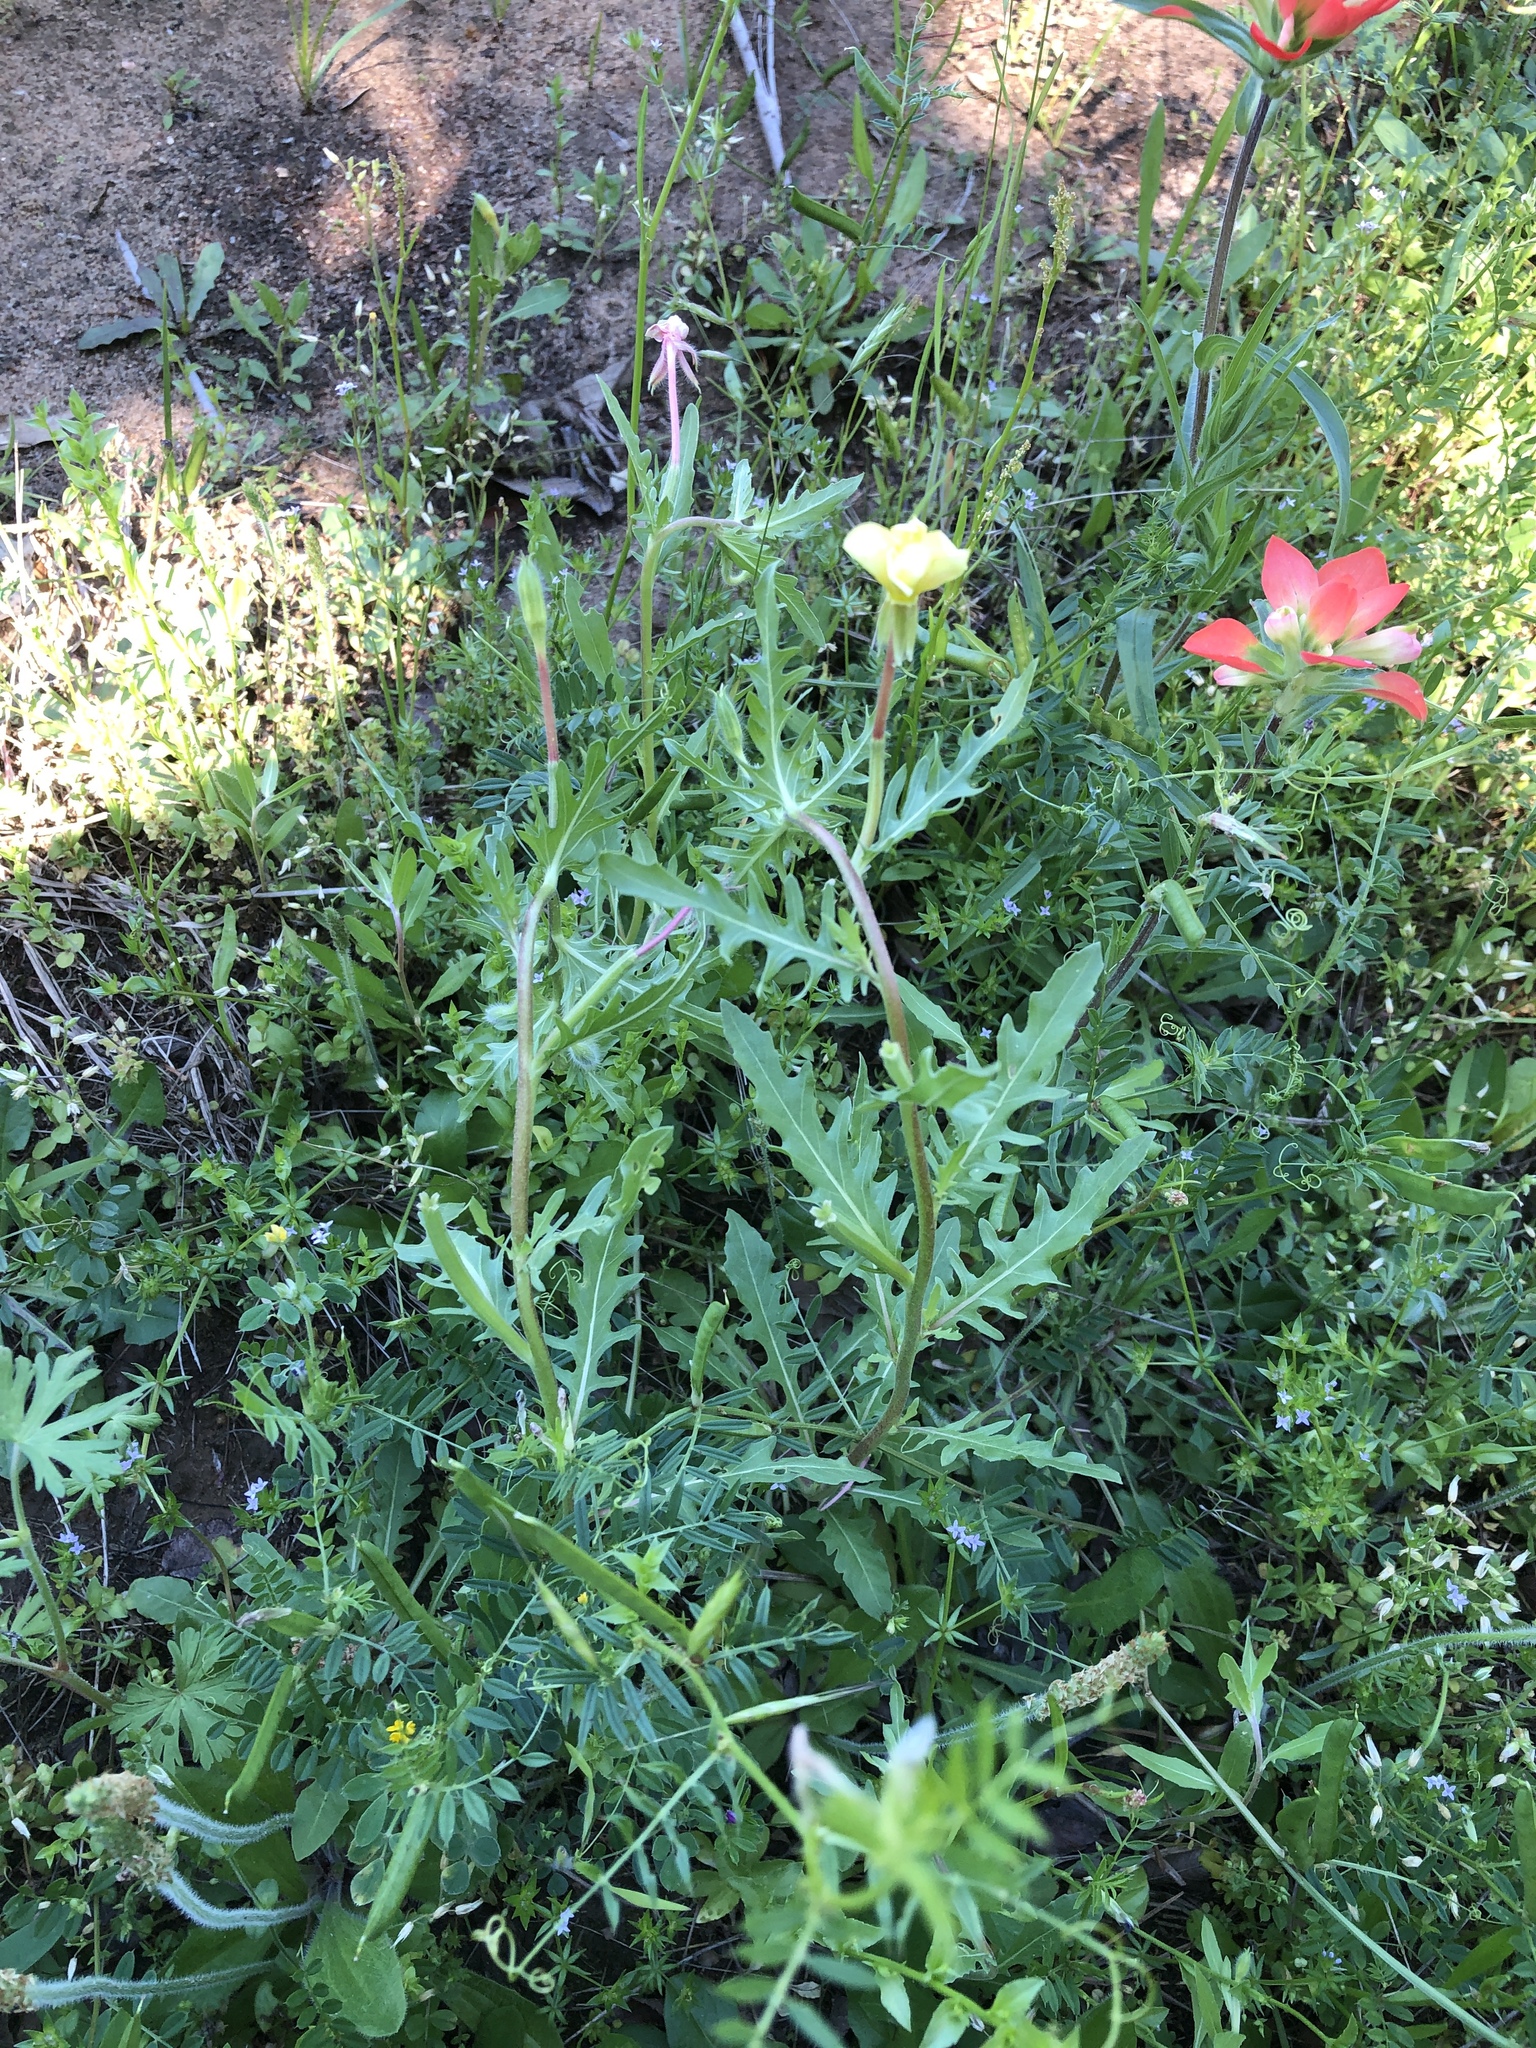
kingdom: Plantae
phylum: Tracheophyta
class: Magnoliopsida
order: Myrtales
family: Onagraceae
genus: Oenothera
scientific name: Oenothera laciniata
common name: Cut-leaved evening-primrose
